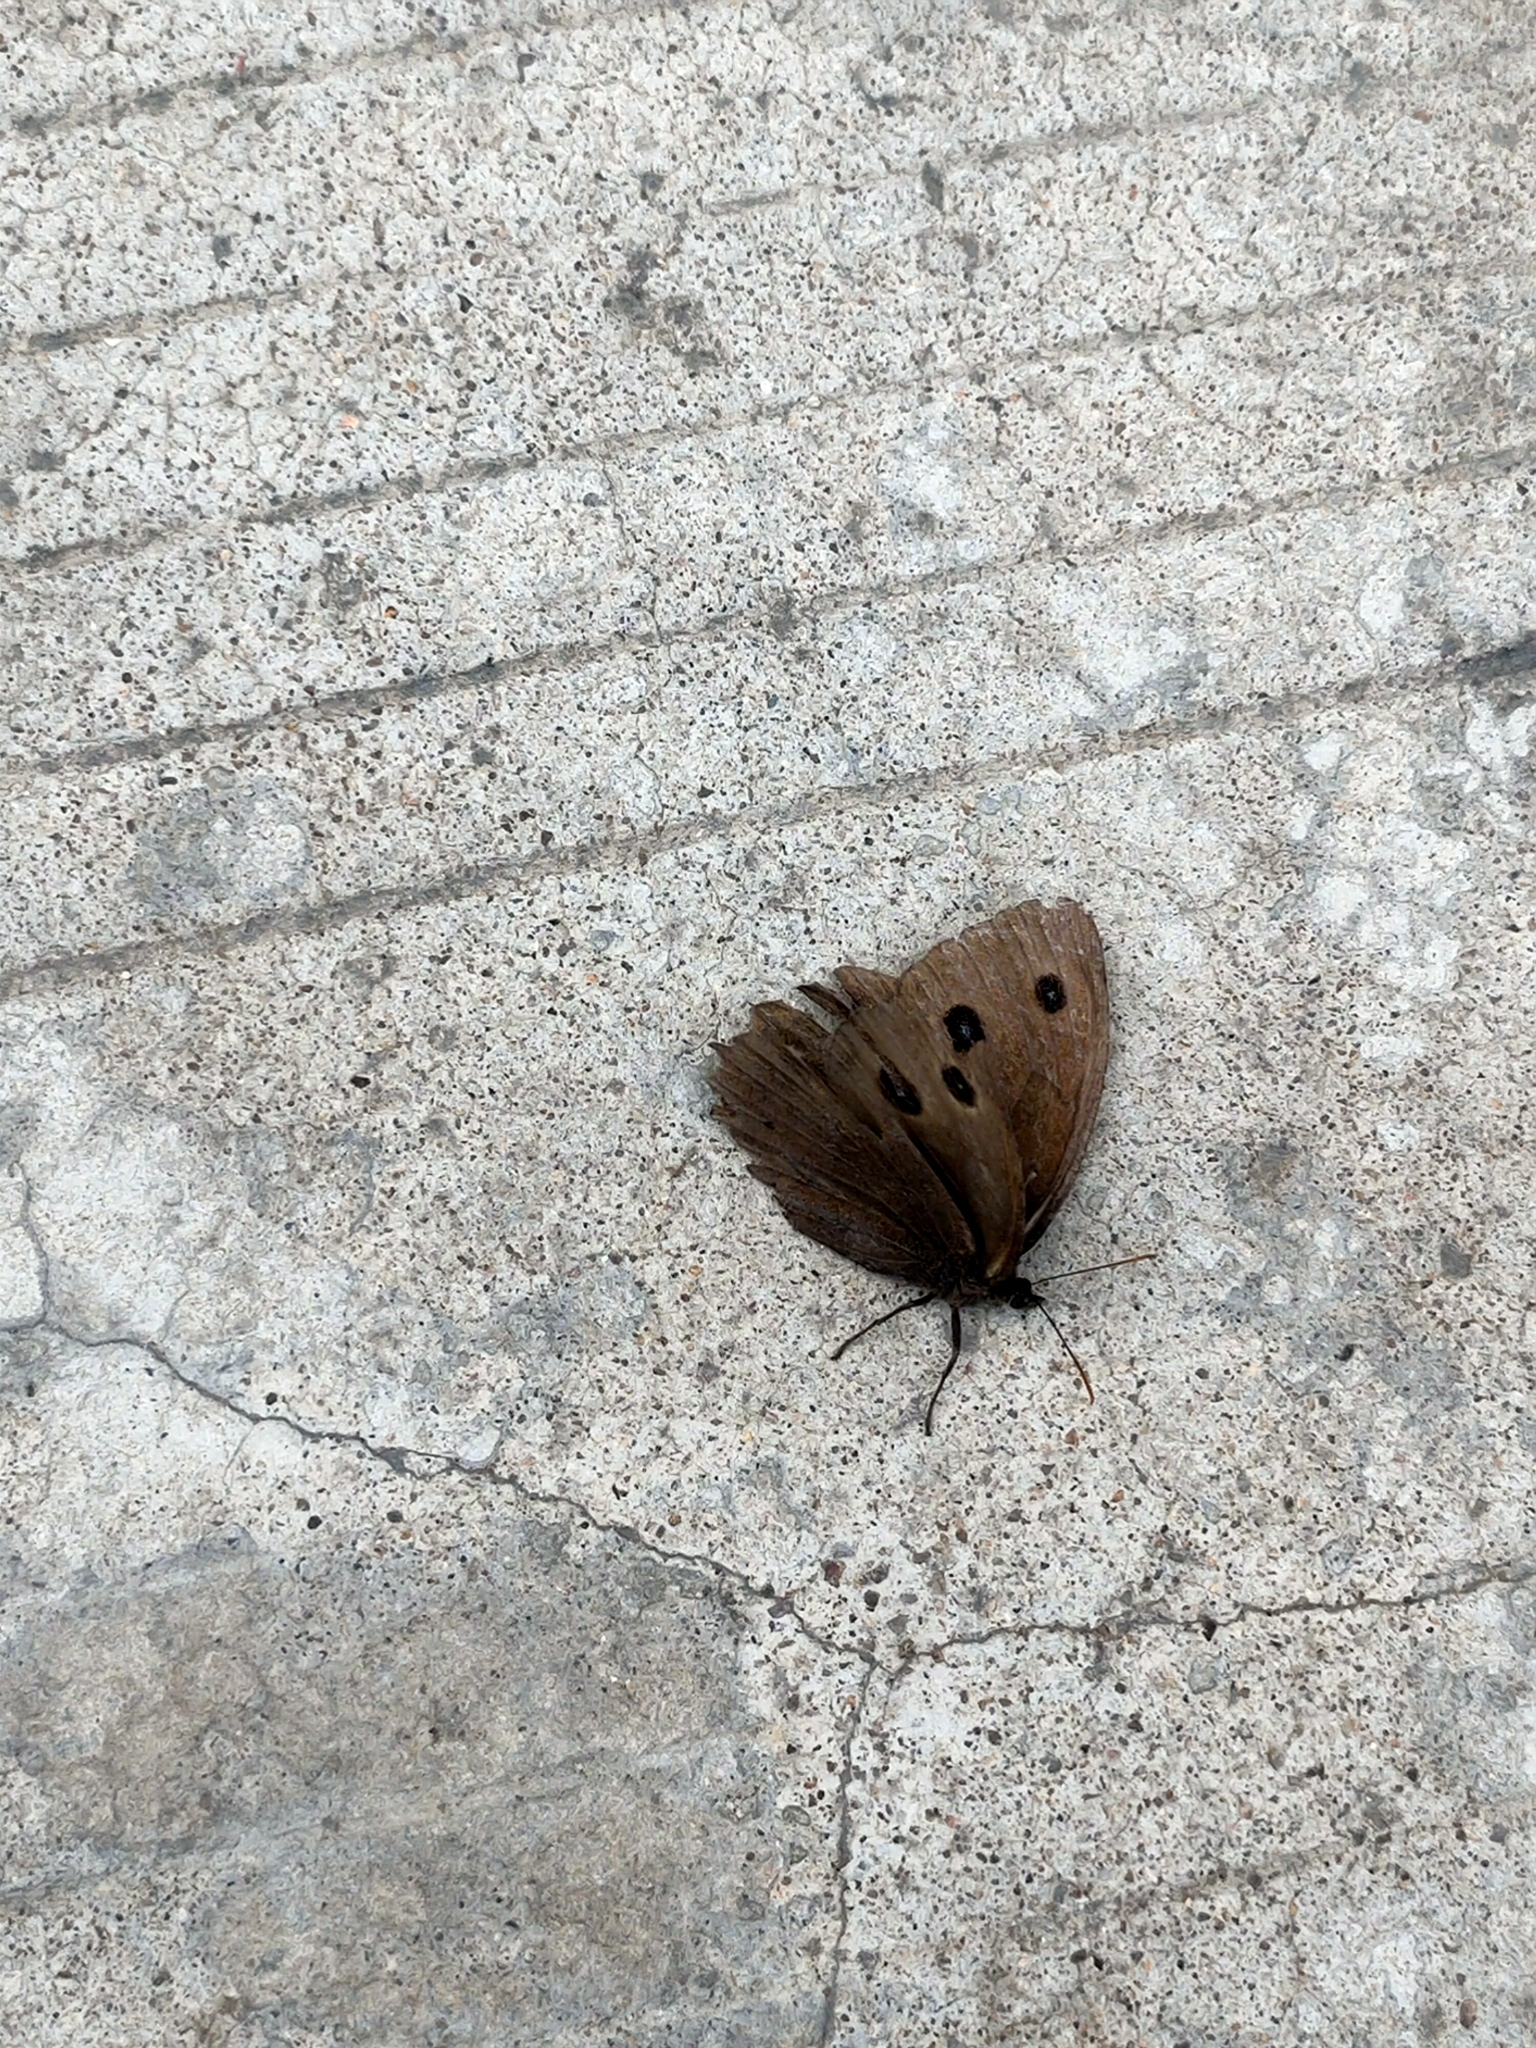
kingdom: Animalia
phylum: Arthropoda
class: Insecta
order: Lepidoptera
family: Nymphalidae
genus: Minois
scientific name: Minois dryas
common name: Dryad
